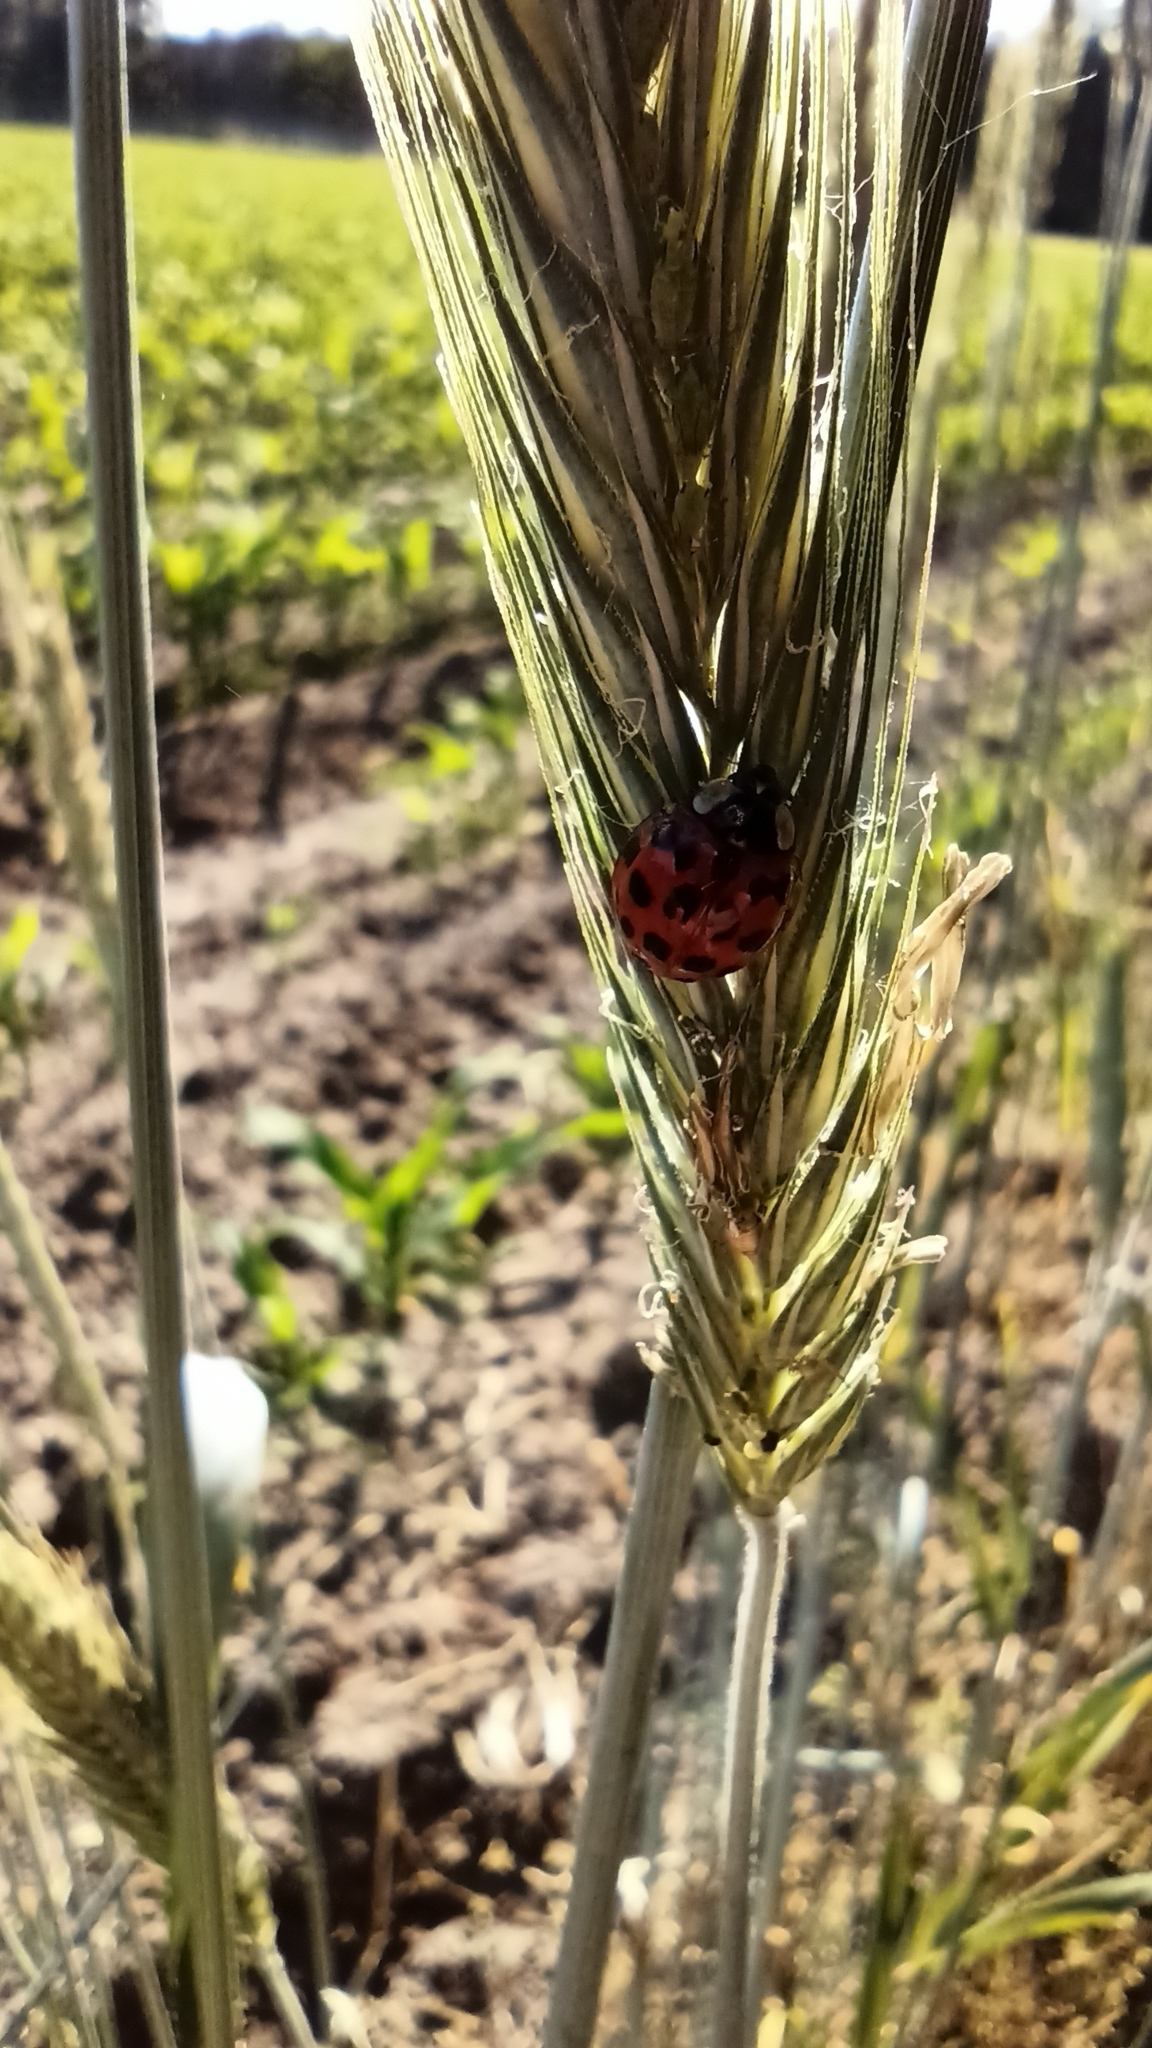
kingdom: Animalia
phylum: Arthropoda
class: Insecta
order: Coleoptera
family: Coccinellidae
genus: Harmonia
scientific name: Harmonia axyridis
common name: Harlequin ladybird
